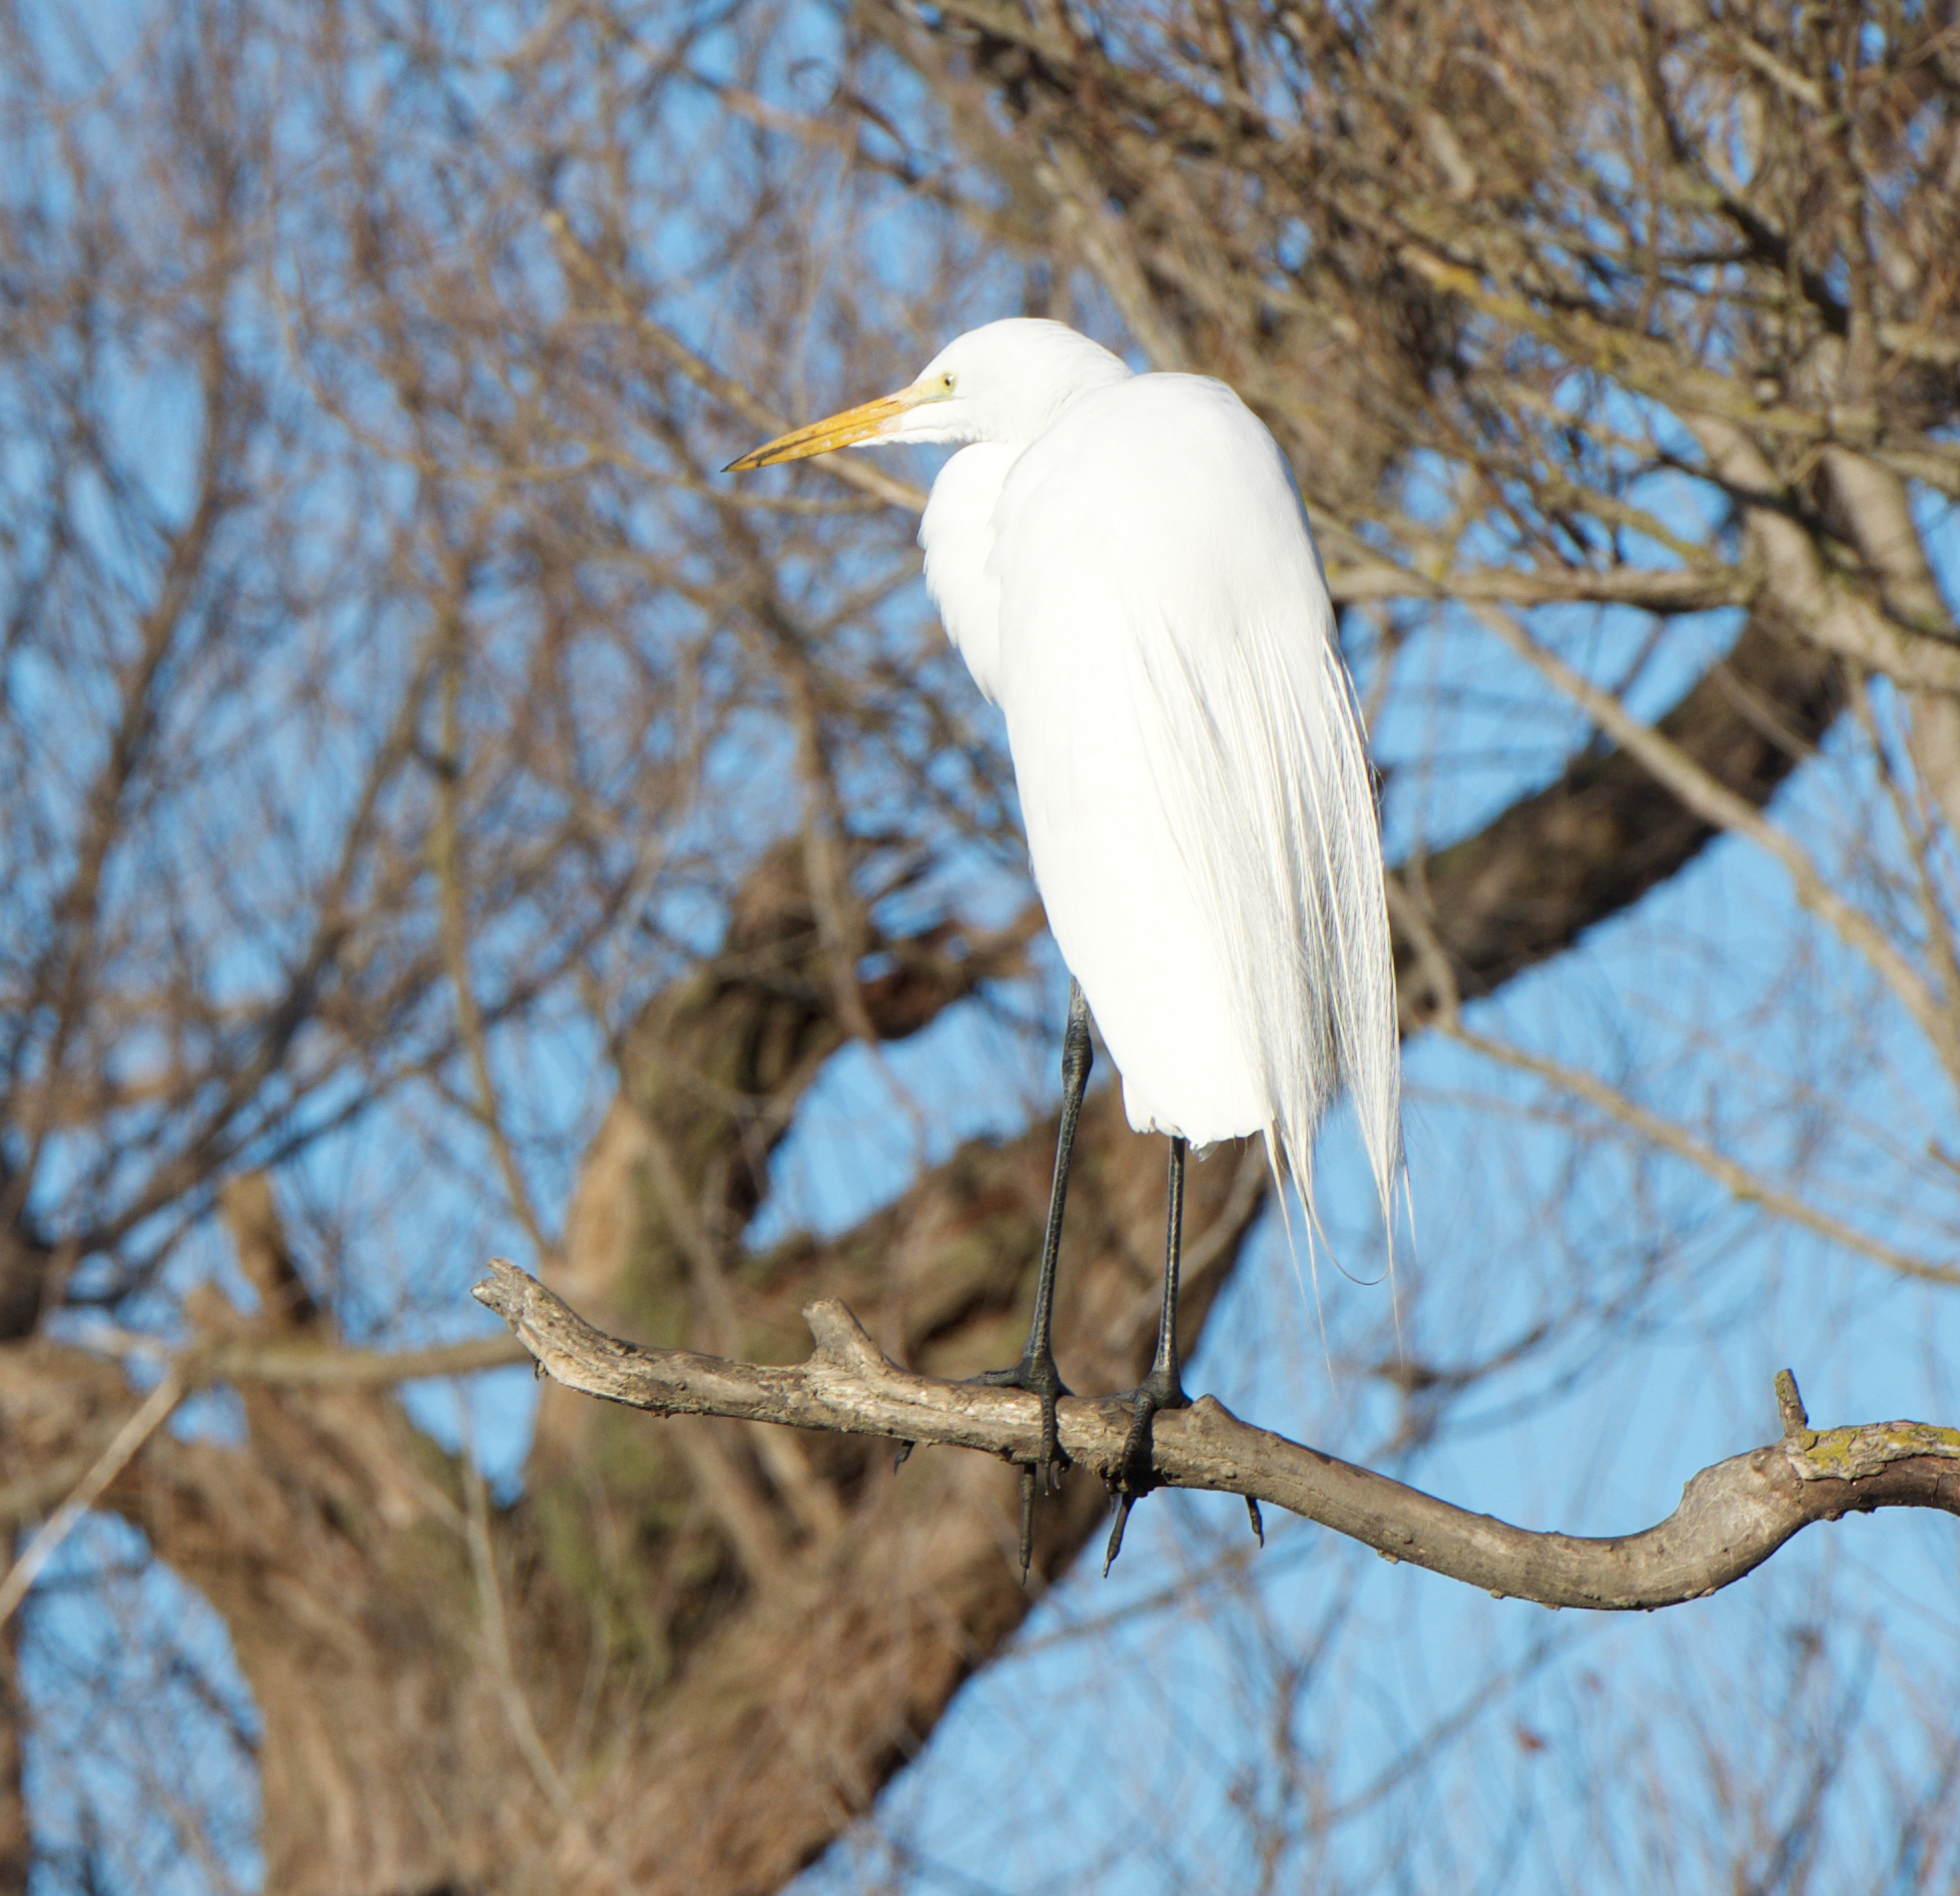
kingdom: Animalia
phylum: Chordata
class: Aves
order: Pelecaniformes
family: Ardeidae
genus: Ardea
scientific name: Ardea alba
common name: Great egret
